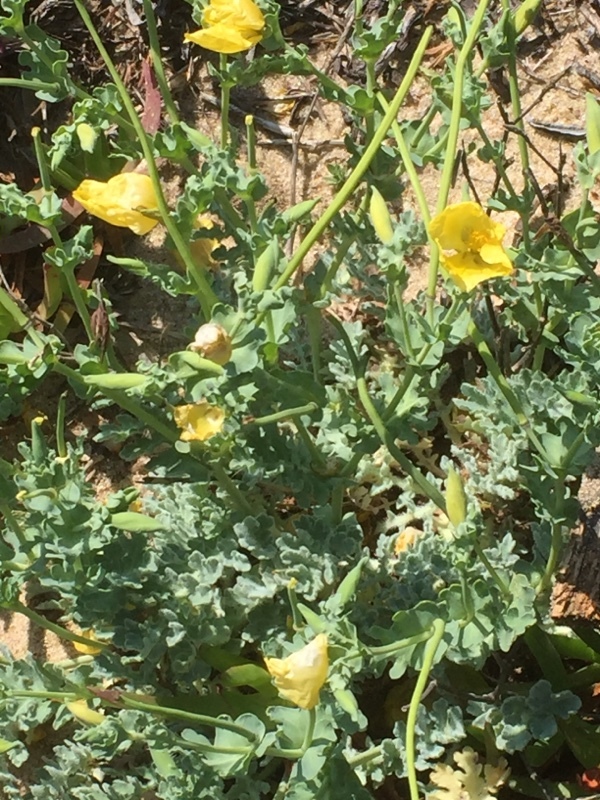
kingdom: Plantae
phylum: Tracheophyta
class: Magnoliopsida
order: Ranunculales
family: Papaveraceae
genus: Glaucium
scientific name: Glaucium flavum
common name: Yellow horned-poppy
